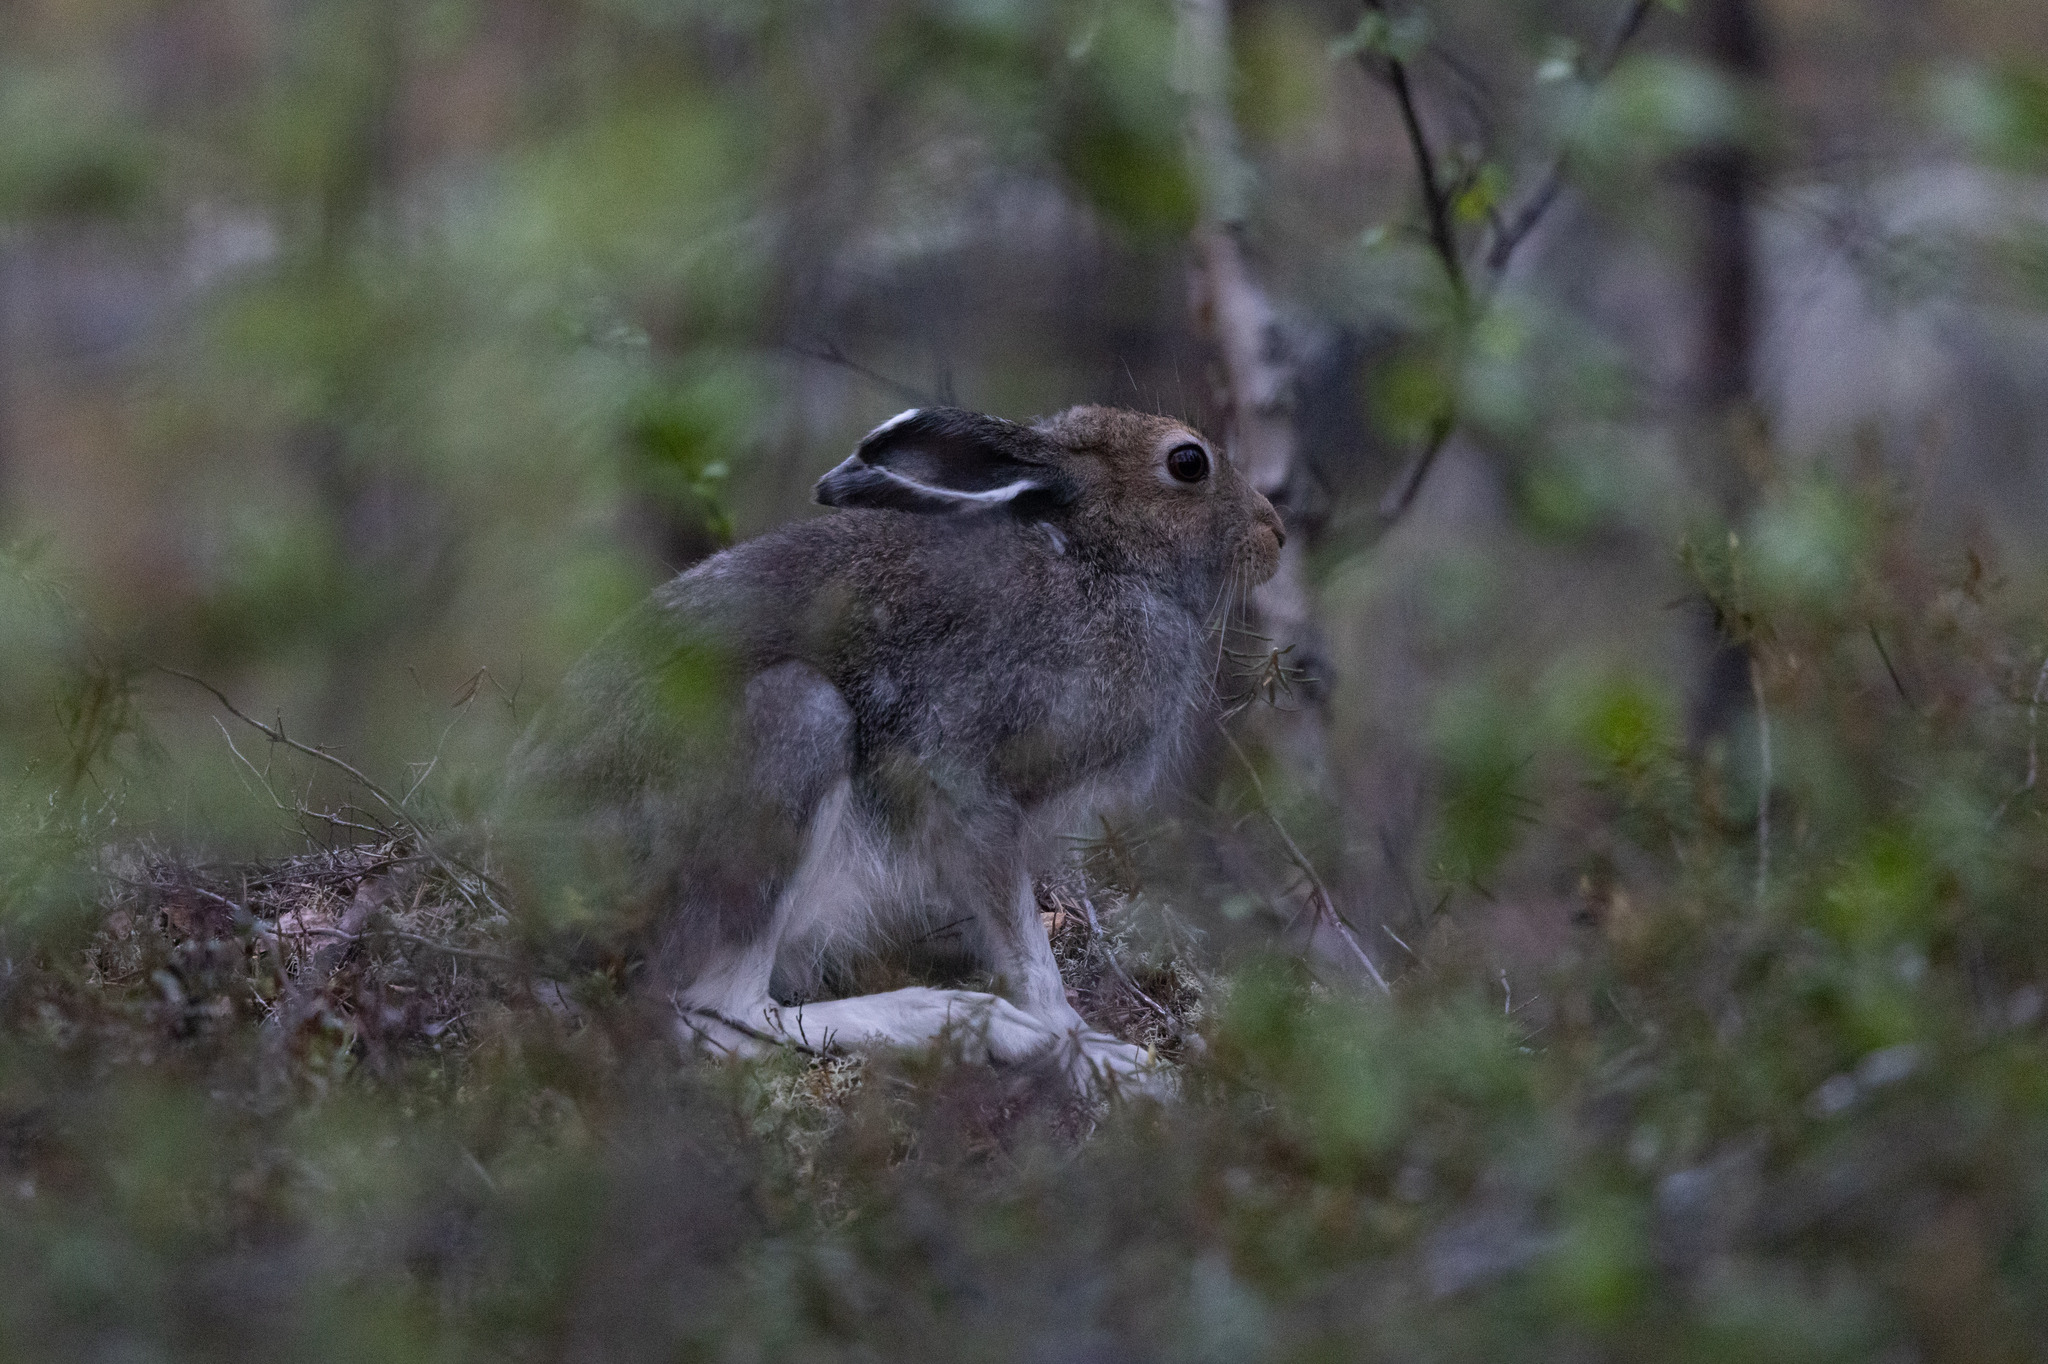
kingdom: Animalia
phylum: Chordata
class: Mammalia
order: Lagomorpha
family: Leporidae
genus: Lepus
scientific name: Lepus timidus
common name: Mountain hare
